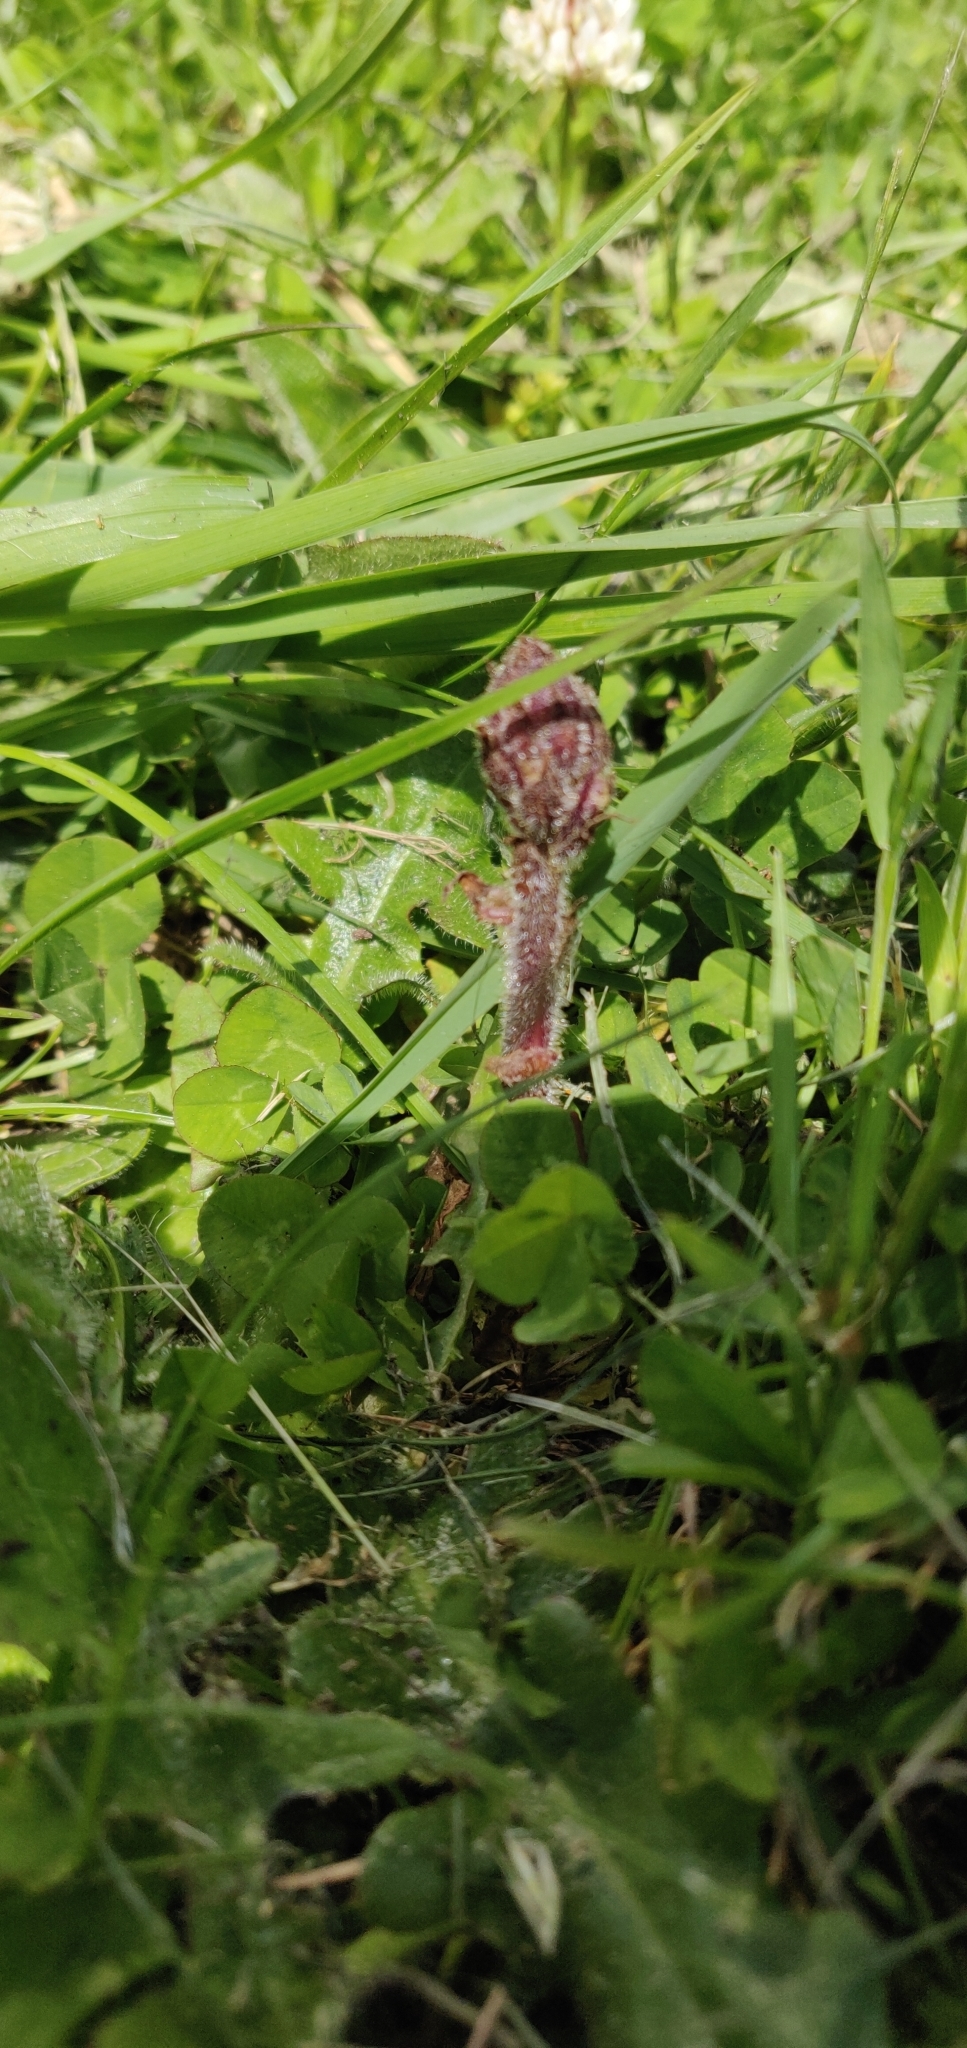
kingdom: Plantae
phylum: Tracheophyta
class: Magnoliopsida
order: Lamiales
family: Orobanchaceae
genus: Orobanche
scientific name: Orobanche minor
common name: Common broomrape
